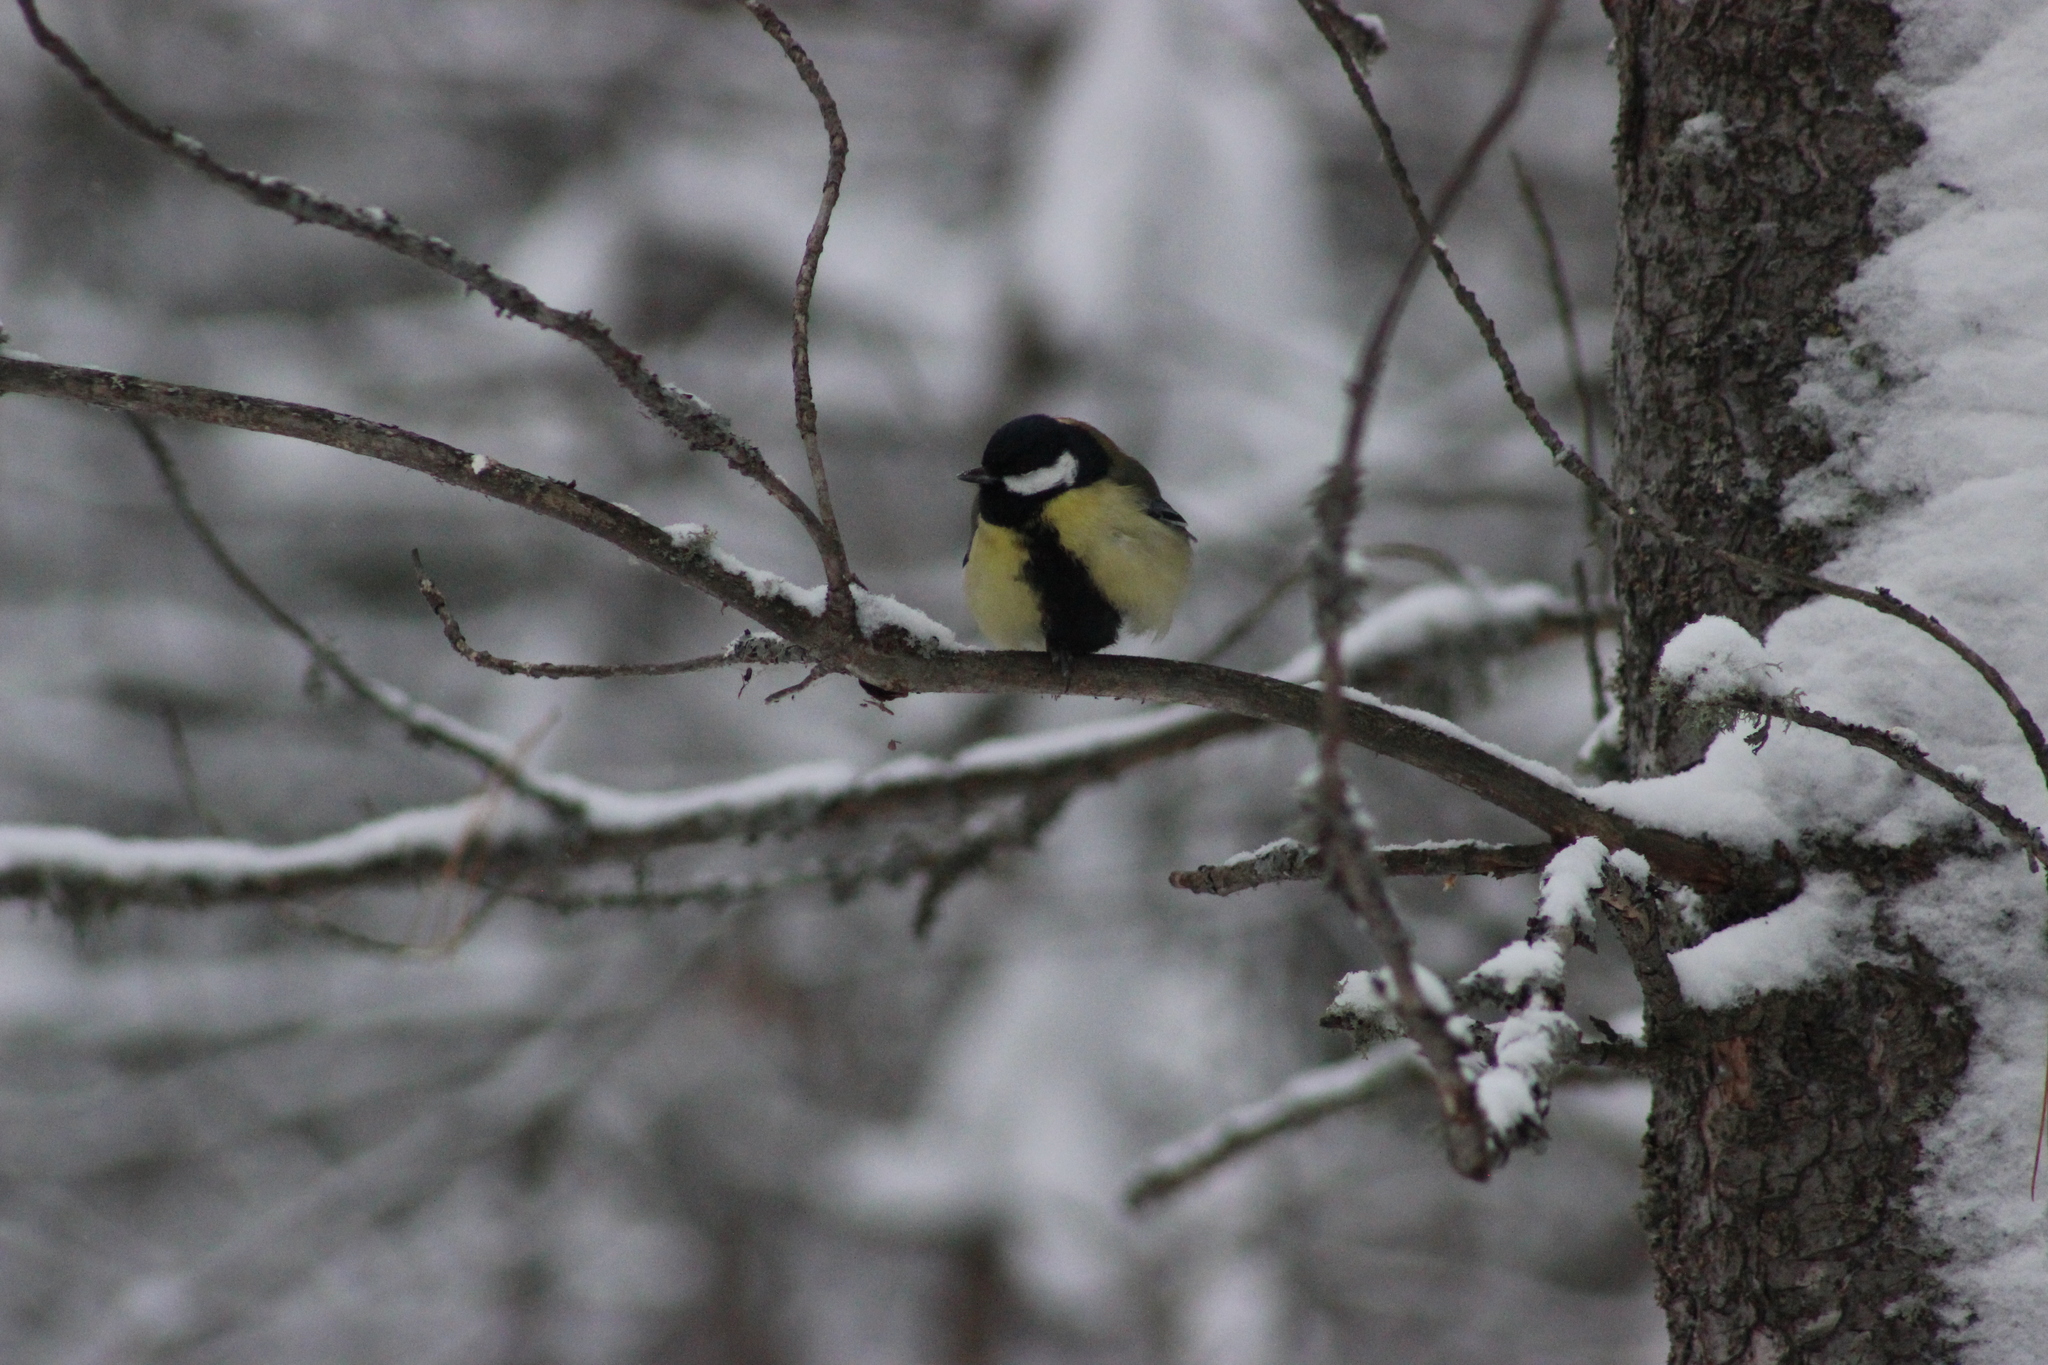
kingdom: Animalia
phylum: Chordata
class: Aves
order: Passeriformes
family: Paridae
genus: Parus
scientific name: Parus major
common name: Great tit
